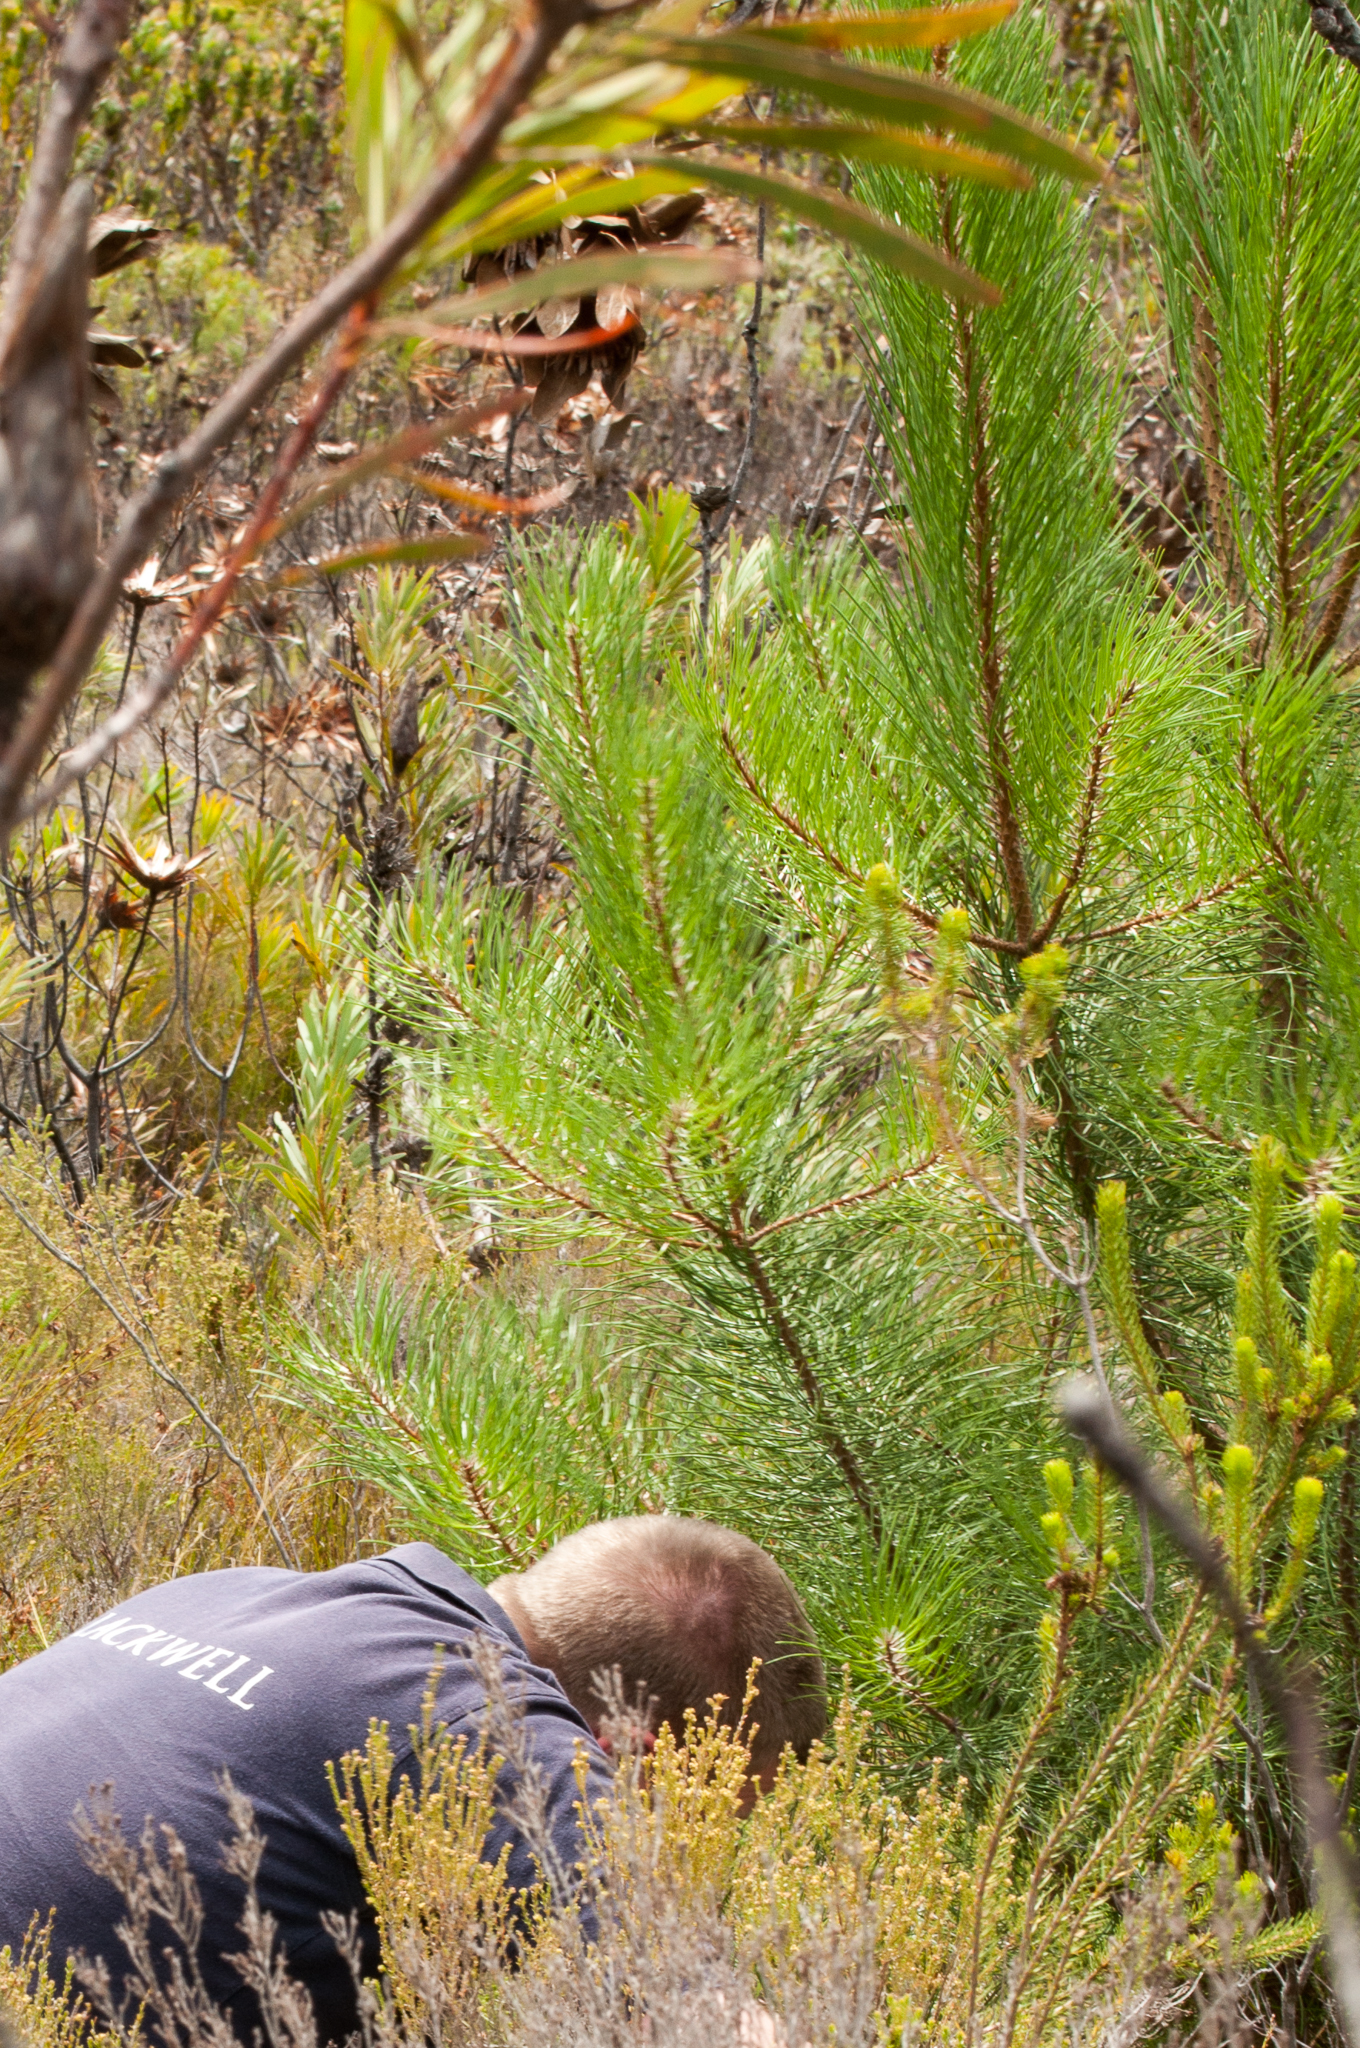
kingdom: Plantae
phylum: Tracheophyta
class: Pinopsida
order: Pinales
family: Pinaceae
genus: Pinus
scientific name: Pinus pinaster
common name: Maritime pine
